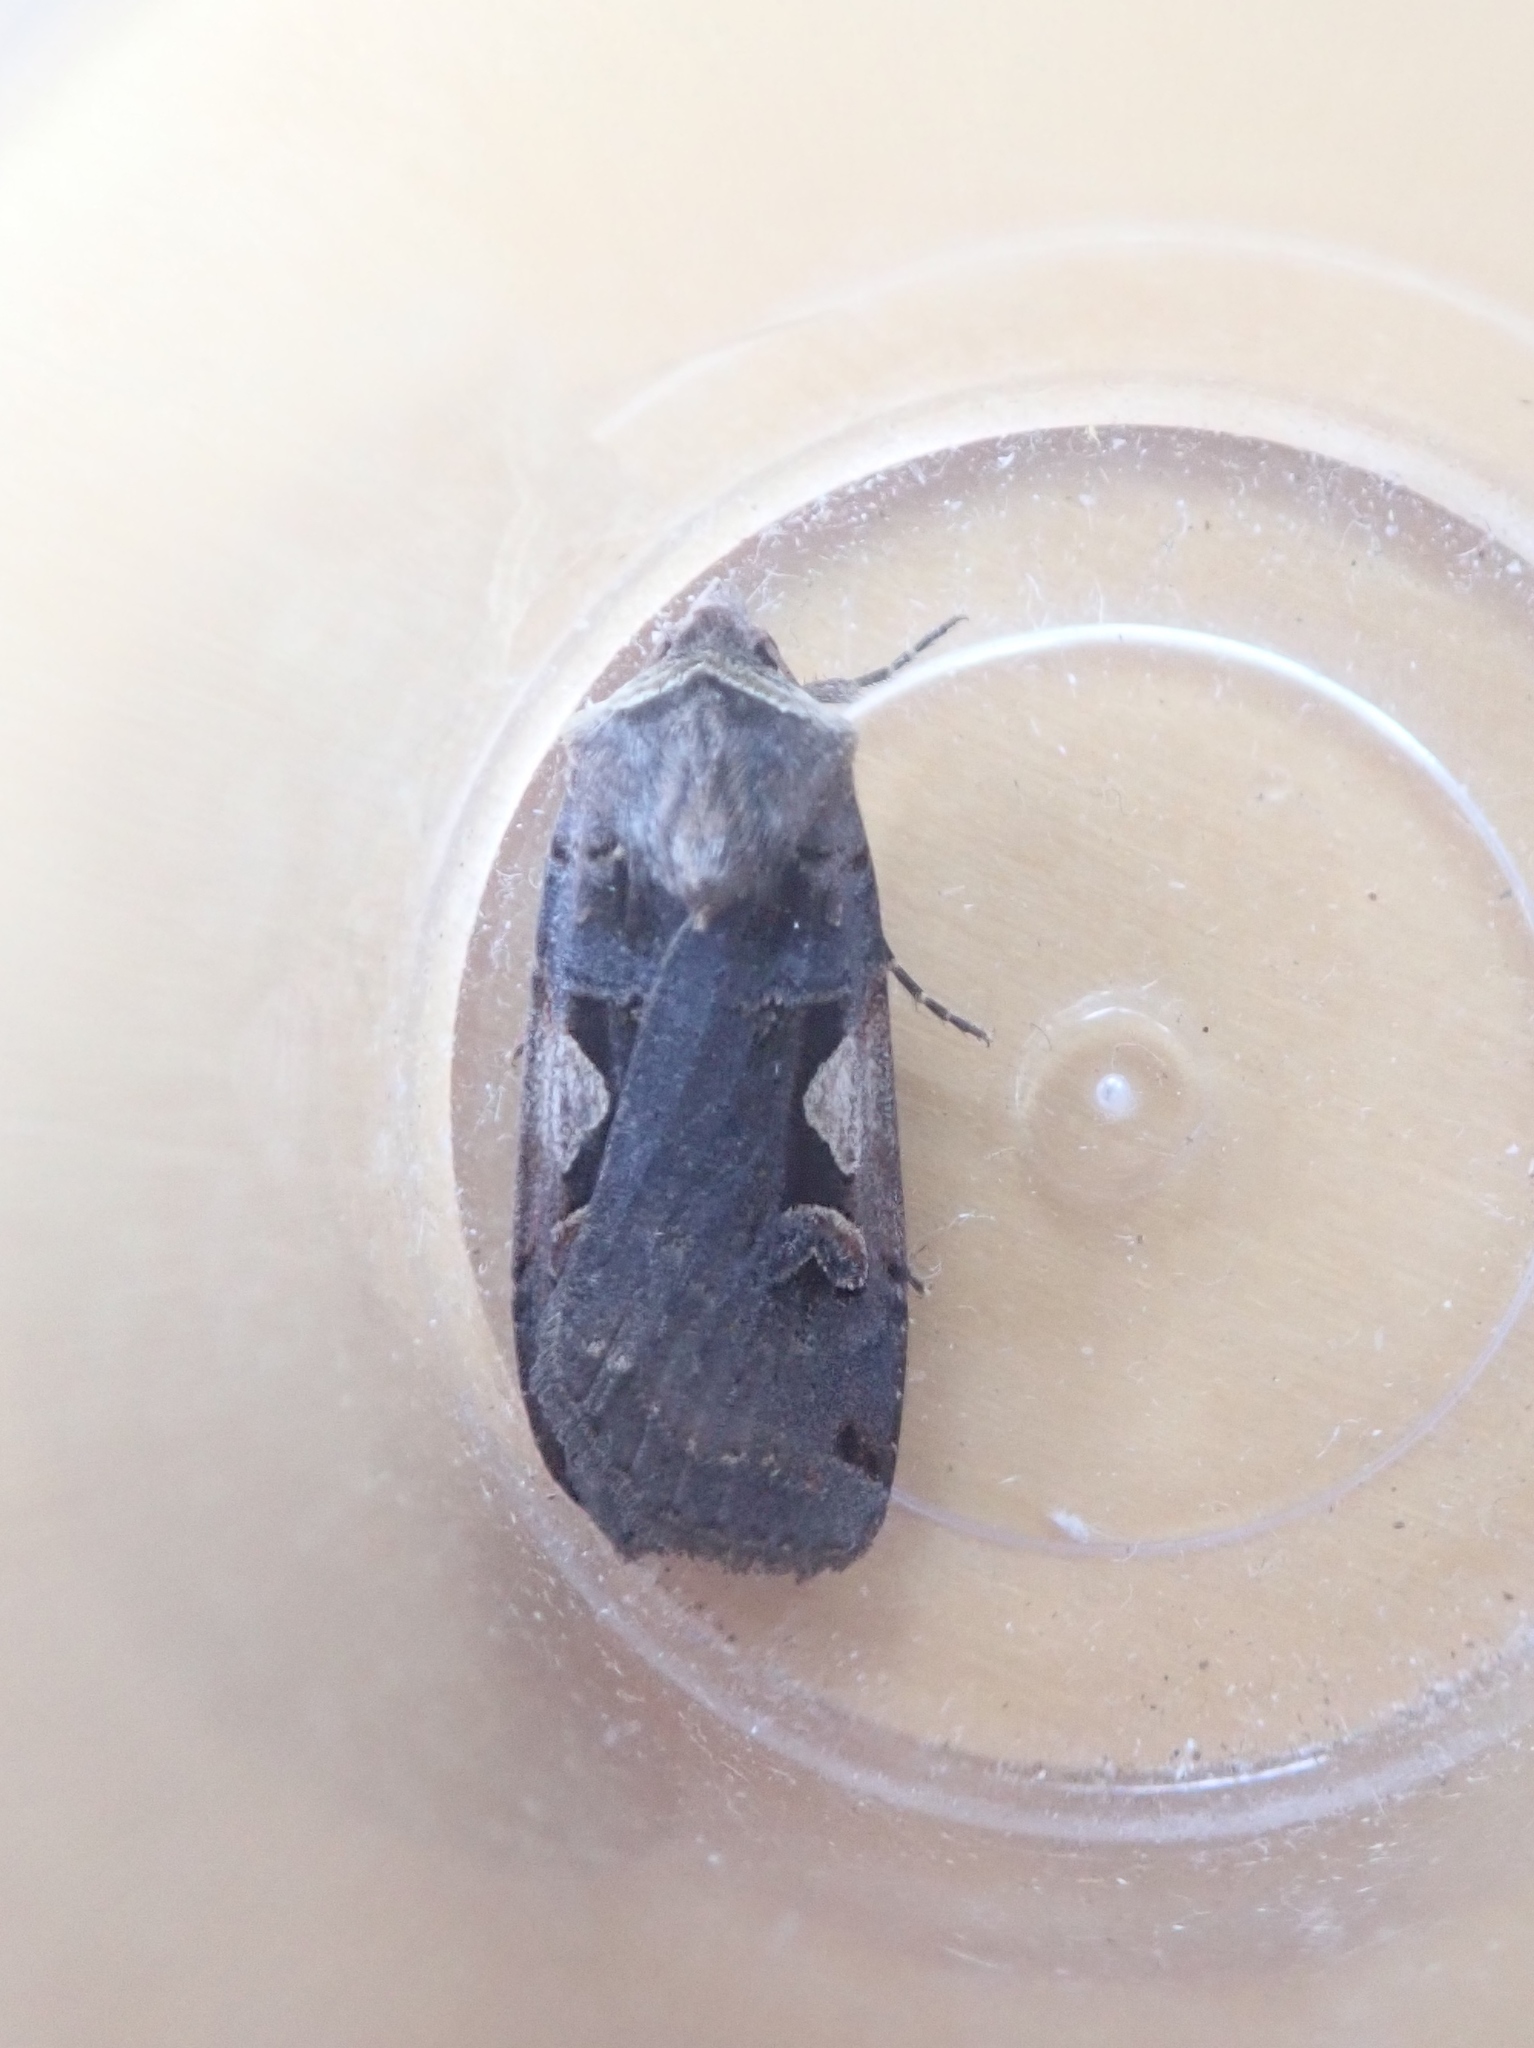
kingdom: Animalia
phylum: Arthropoda
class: Insecta
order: Lepidoptera
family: Noctuidae
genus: Xestia
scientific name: Xestia c-nigrum
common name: Setaceous hebrew character
